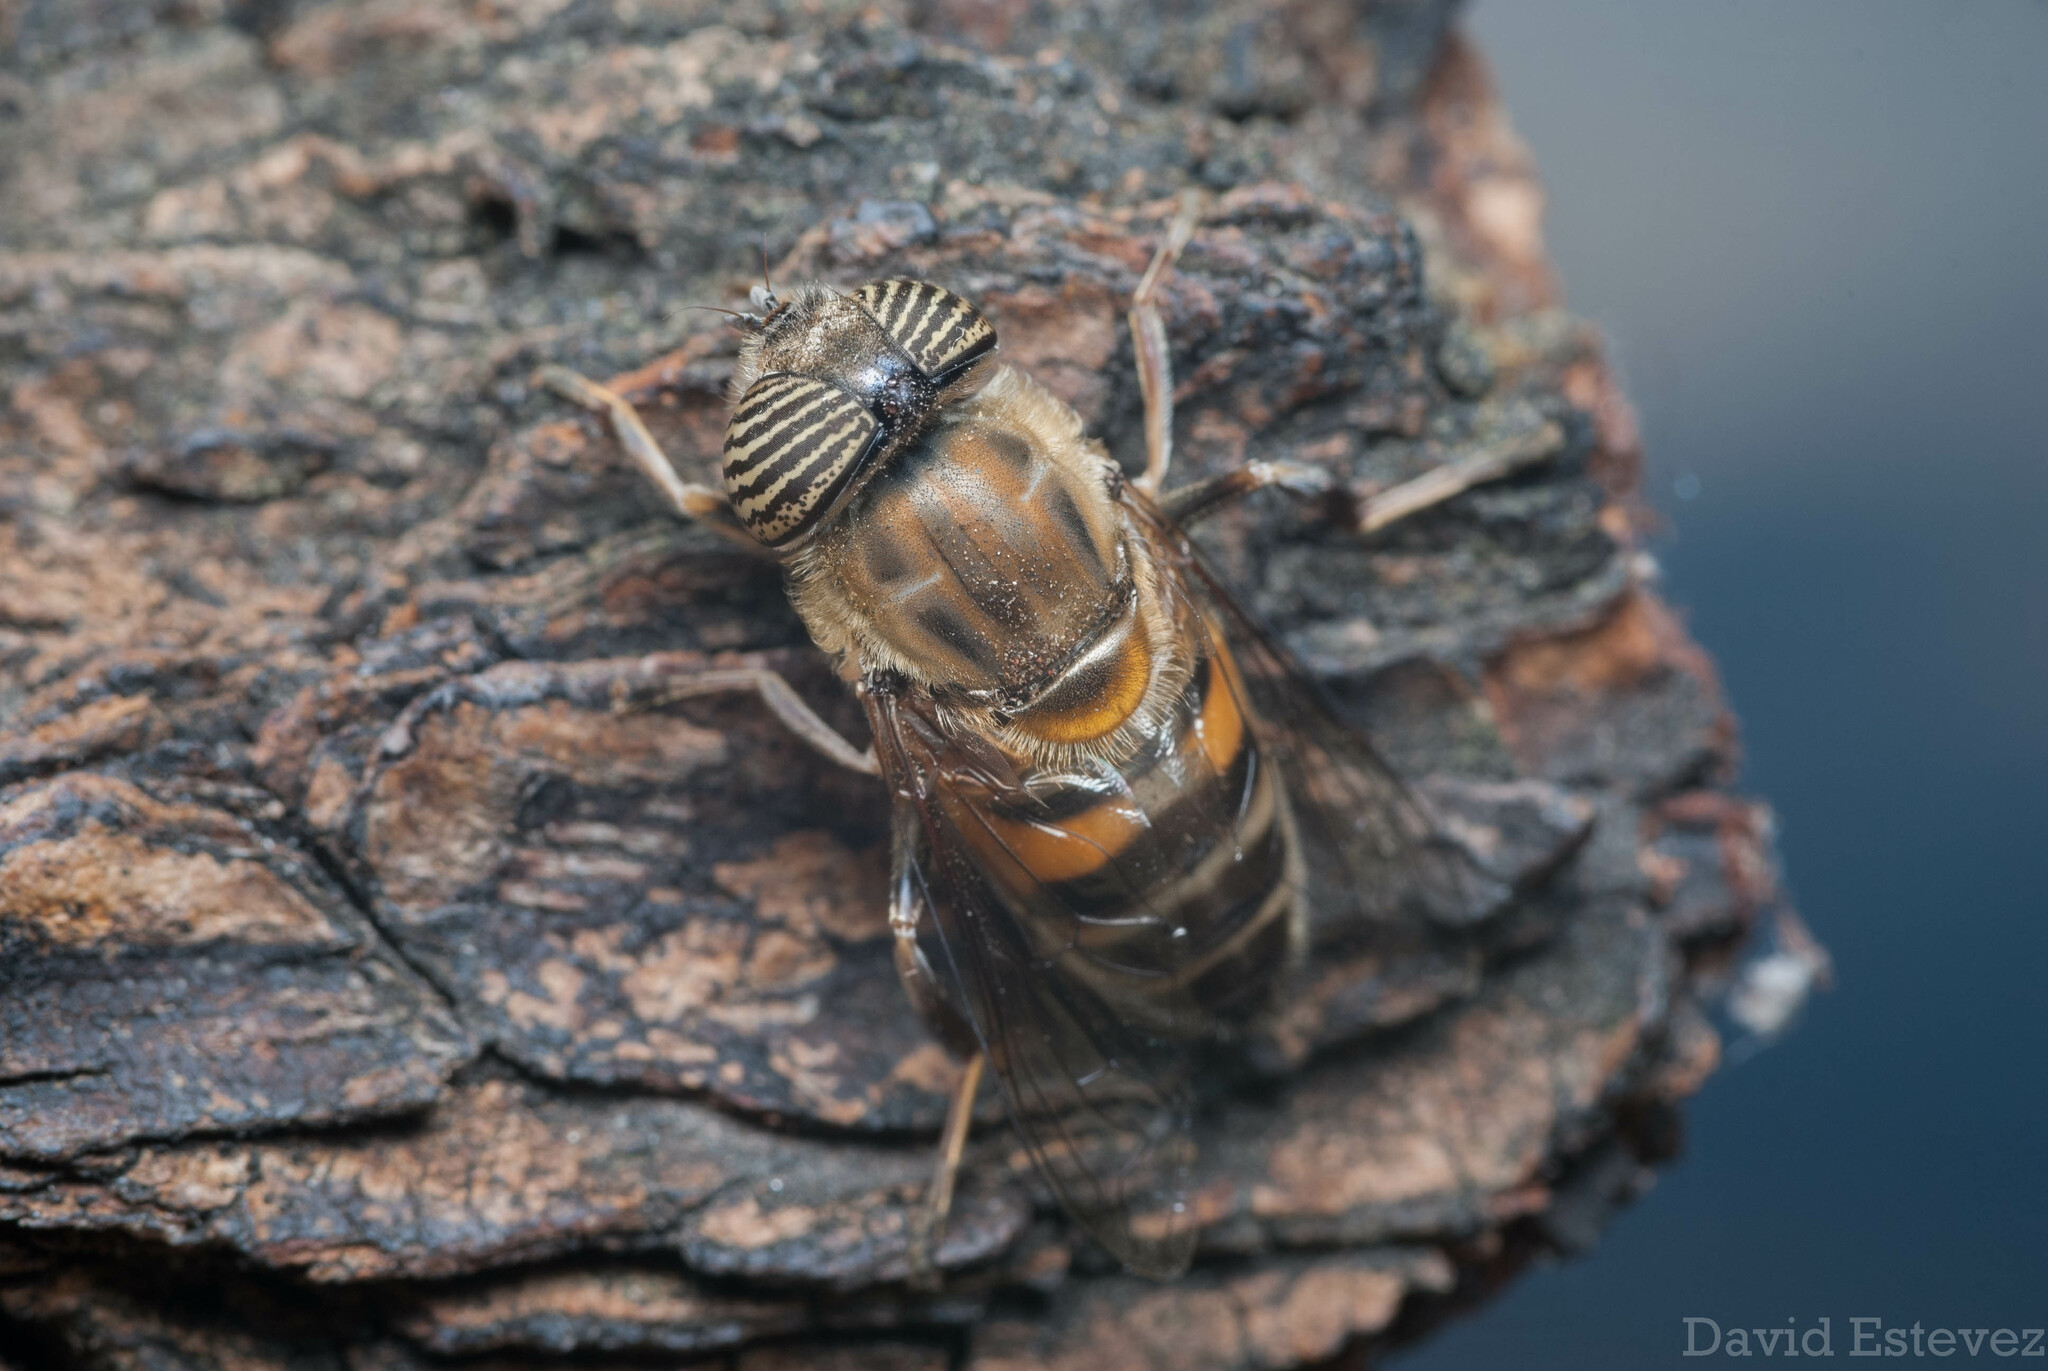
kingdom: Animalia
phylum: Arthropoda
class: Insecta
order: Diptera
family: Syrphidae
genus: Eristalinus
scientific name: Eristalinus taeniops
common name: Syrphid fly
